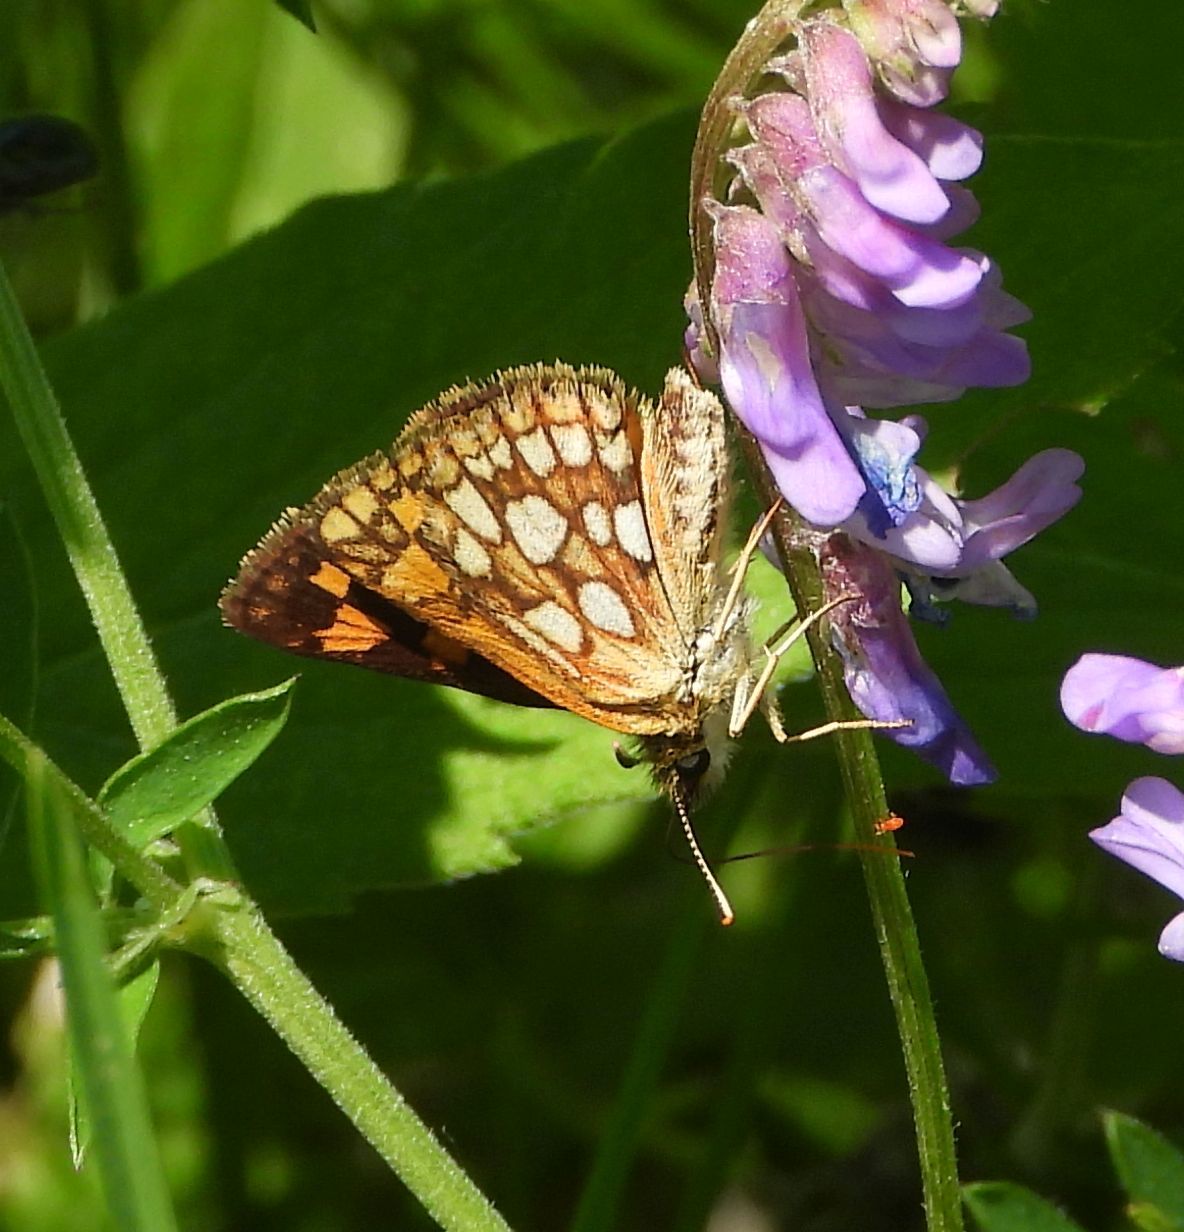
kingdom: Animalia
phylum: Arthropoda
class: Insecta
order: Lepidoptera
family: Hesperiidae
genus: Carterocephalus
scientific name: Carterocephalus mandan
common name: Arctic skipperling
